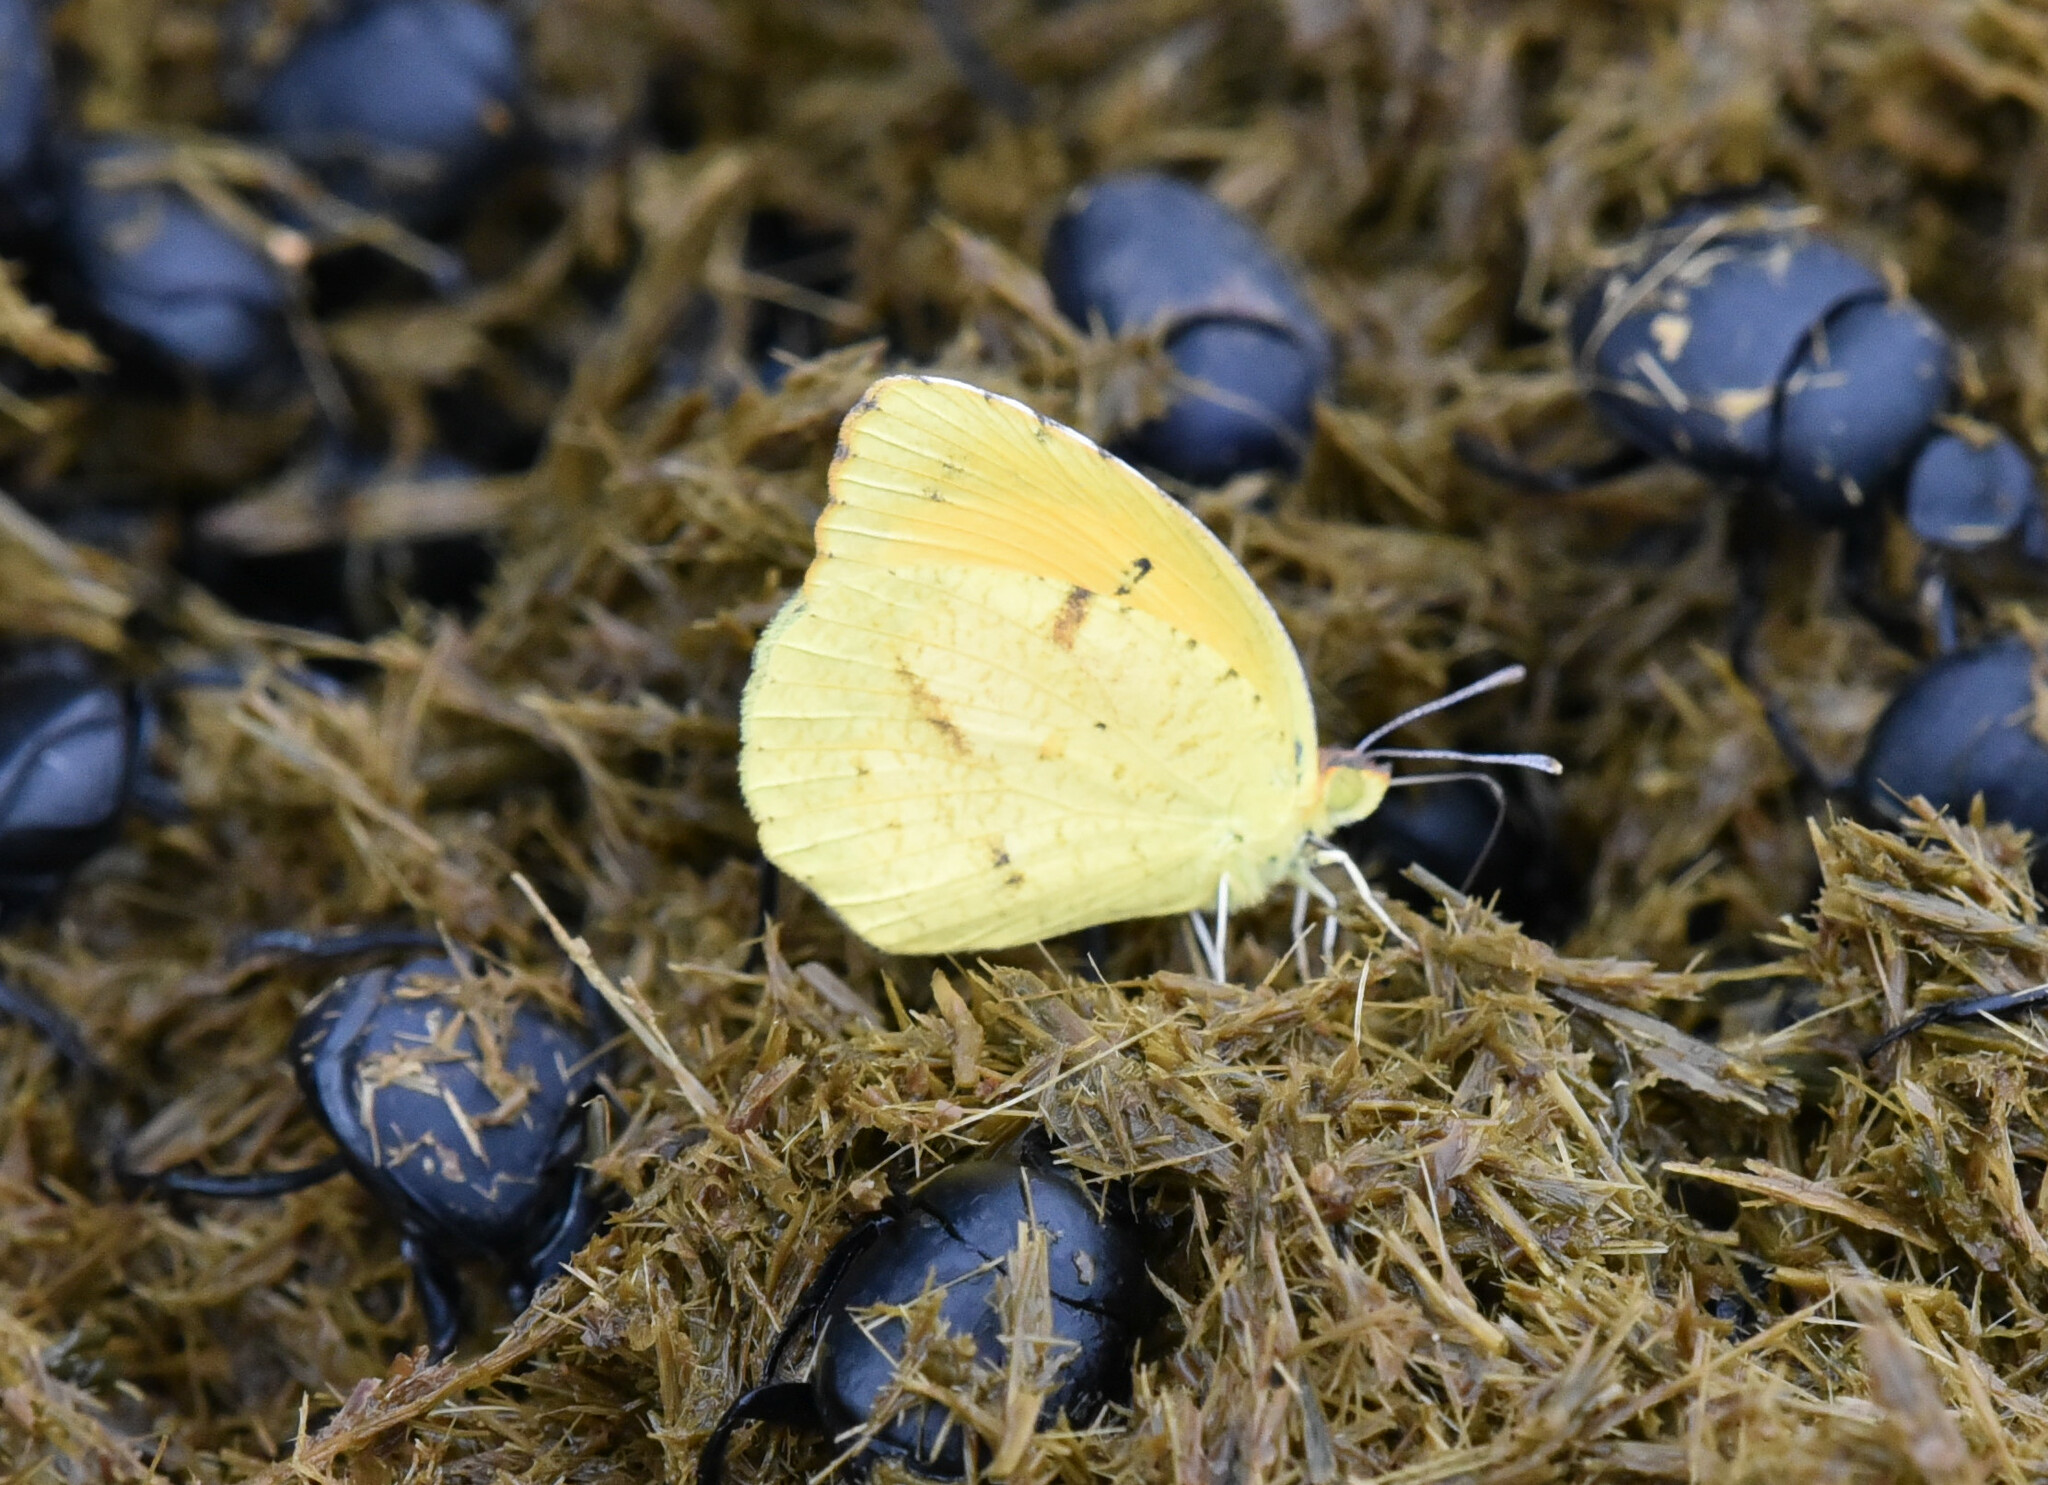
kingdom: Animalia
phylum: Arthropoda
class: Insecta
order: Lepidoptera
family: Pieridae
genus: Abaeis
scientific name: Abaeis nicippe
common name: Sleepy orange
